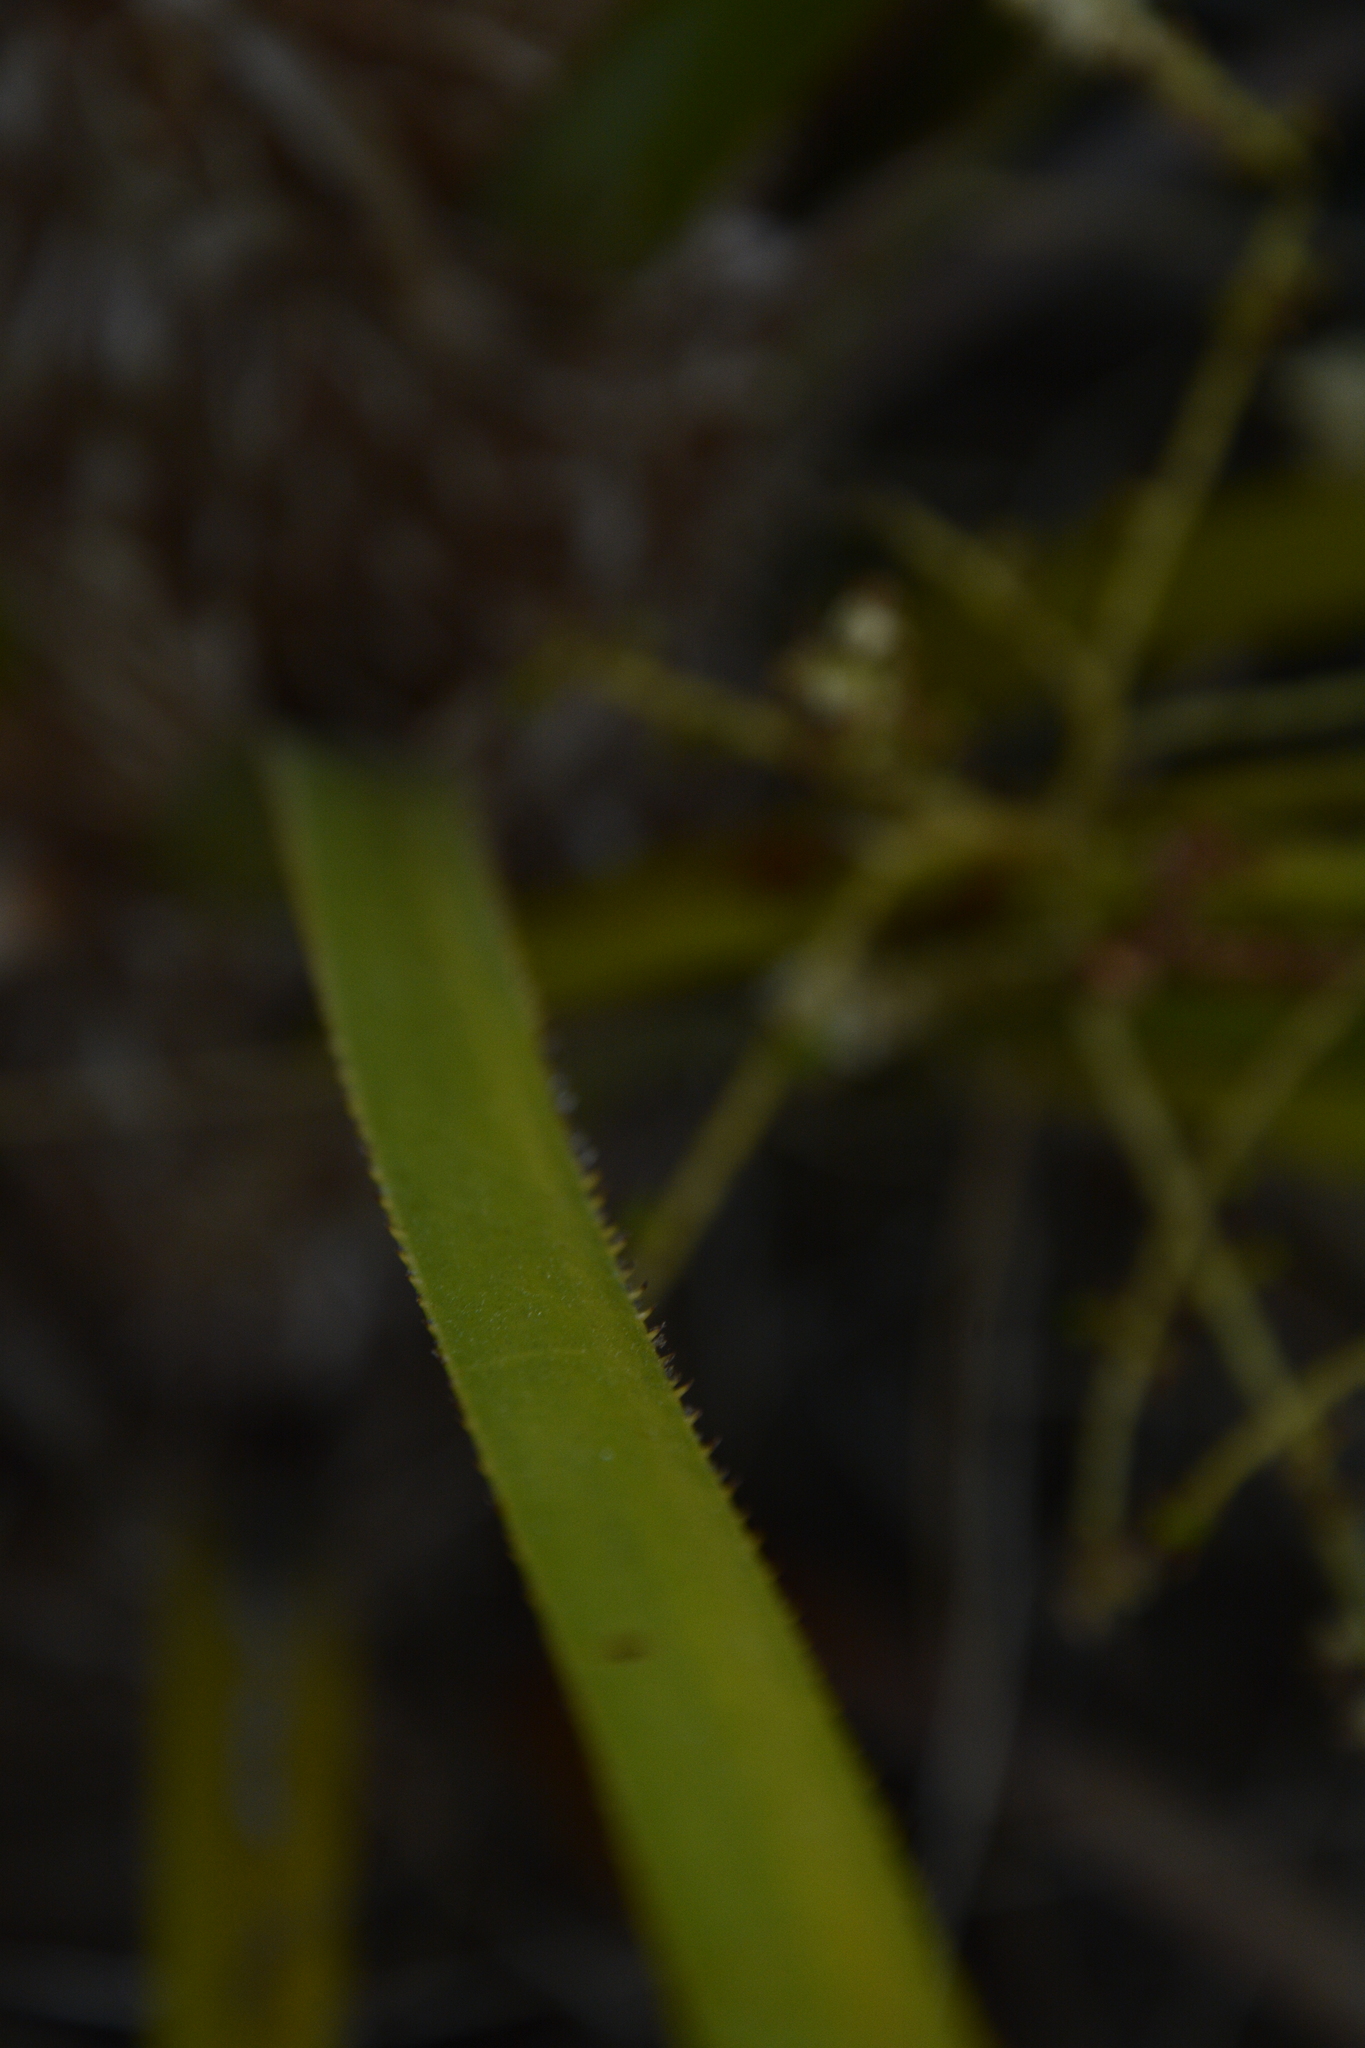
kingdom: Plantae
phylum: Tracheophyta
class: Liliopsida
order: Arecales
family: Arecaceae
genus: Serenoa
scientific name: Serenoa repens
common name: Saw-palmetto
